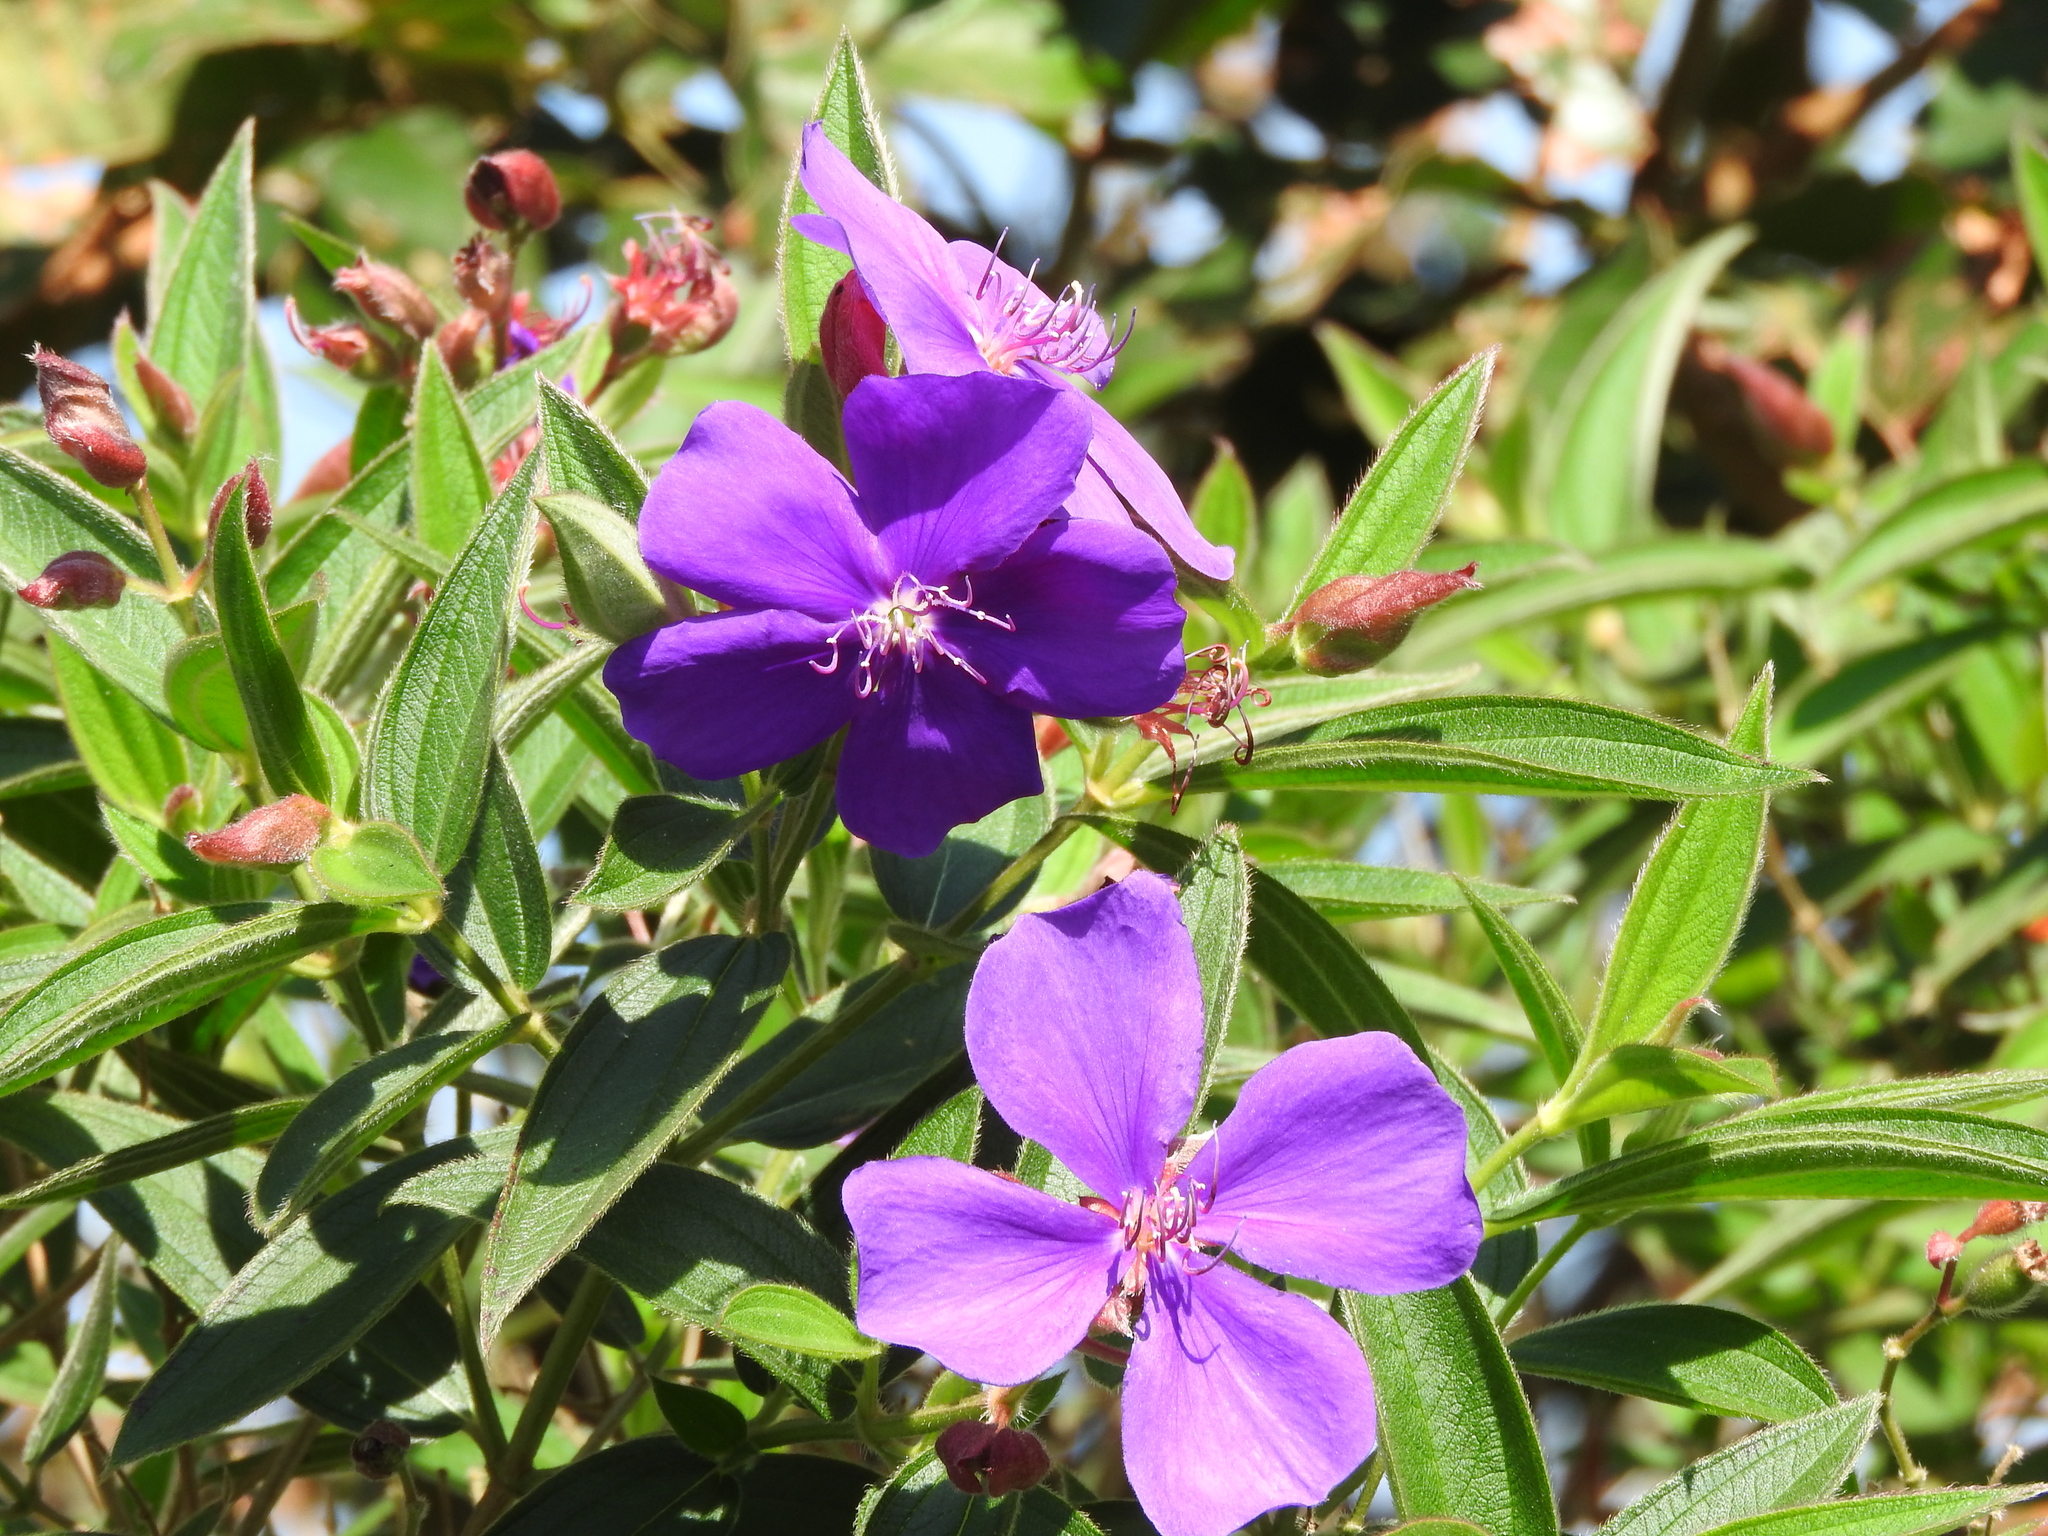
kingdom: Plantae
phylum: Tracheophyta
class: Magnoliopsida
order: Myrtales
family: Melastomataceae
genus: Pleroma
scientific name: Pleroma urvilleanum
